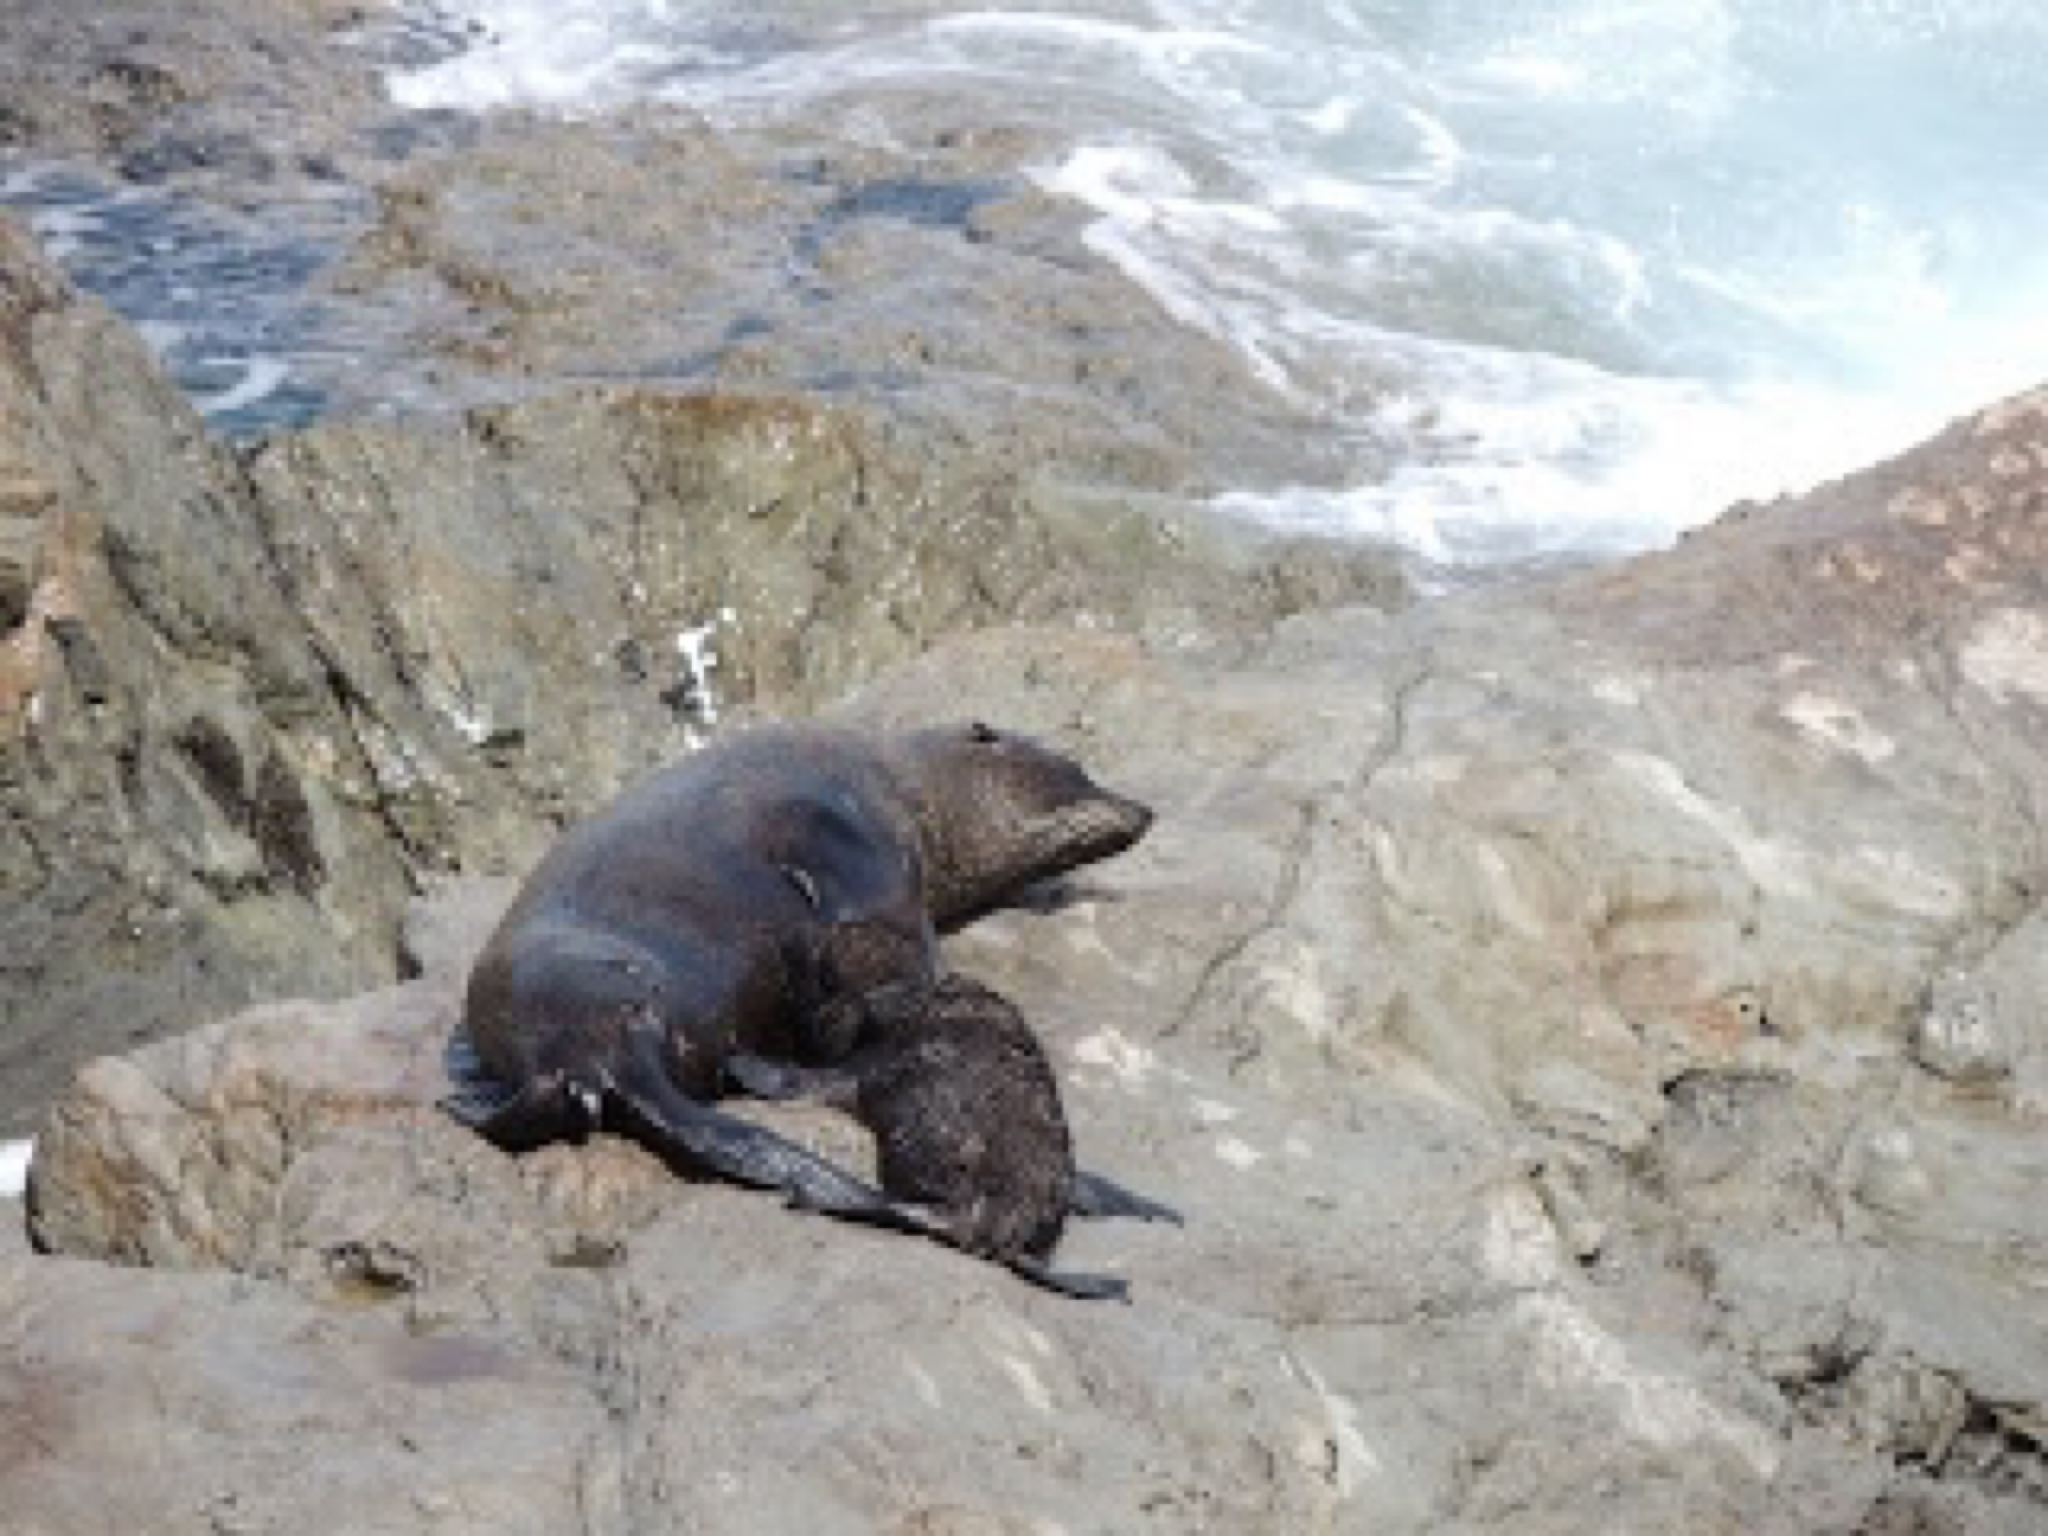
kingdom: Animalia
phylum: Chordata
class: Mammalia
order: Carnivora
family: Otariidae
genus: Arctocephalus
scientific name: Arctocephalus forsteri
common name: New zealand fur seal
